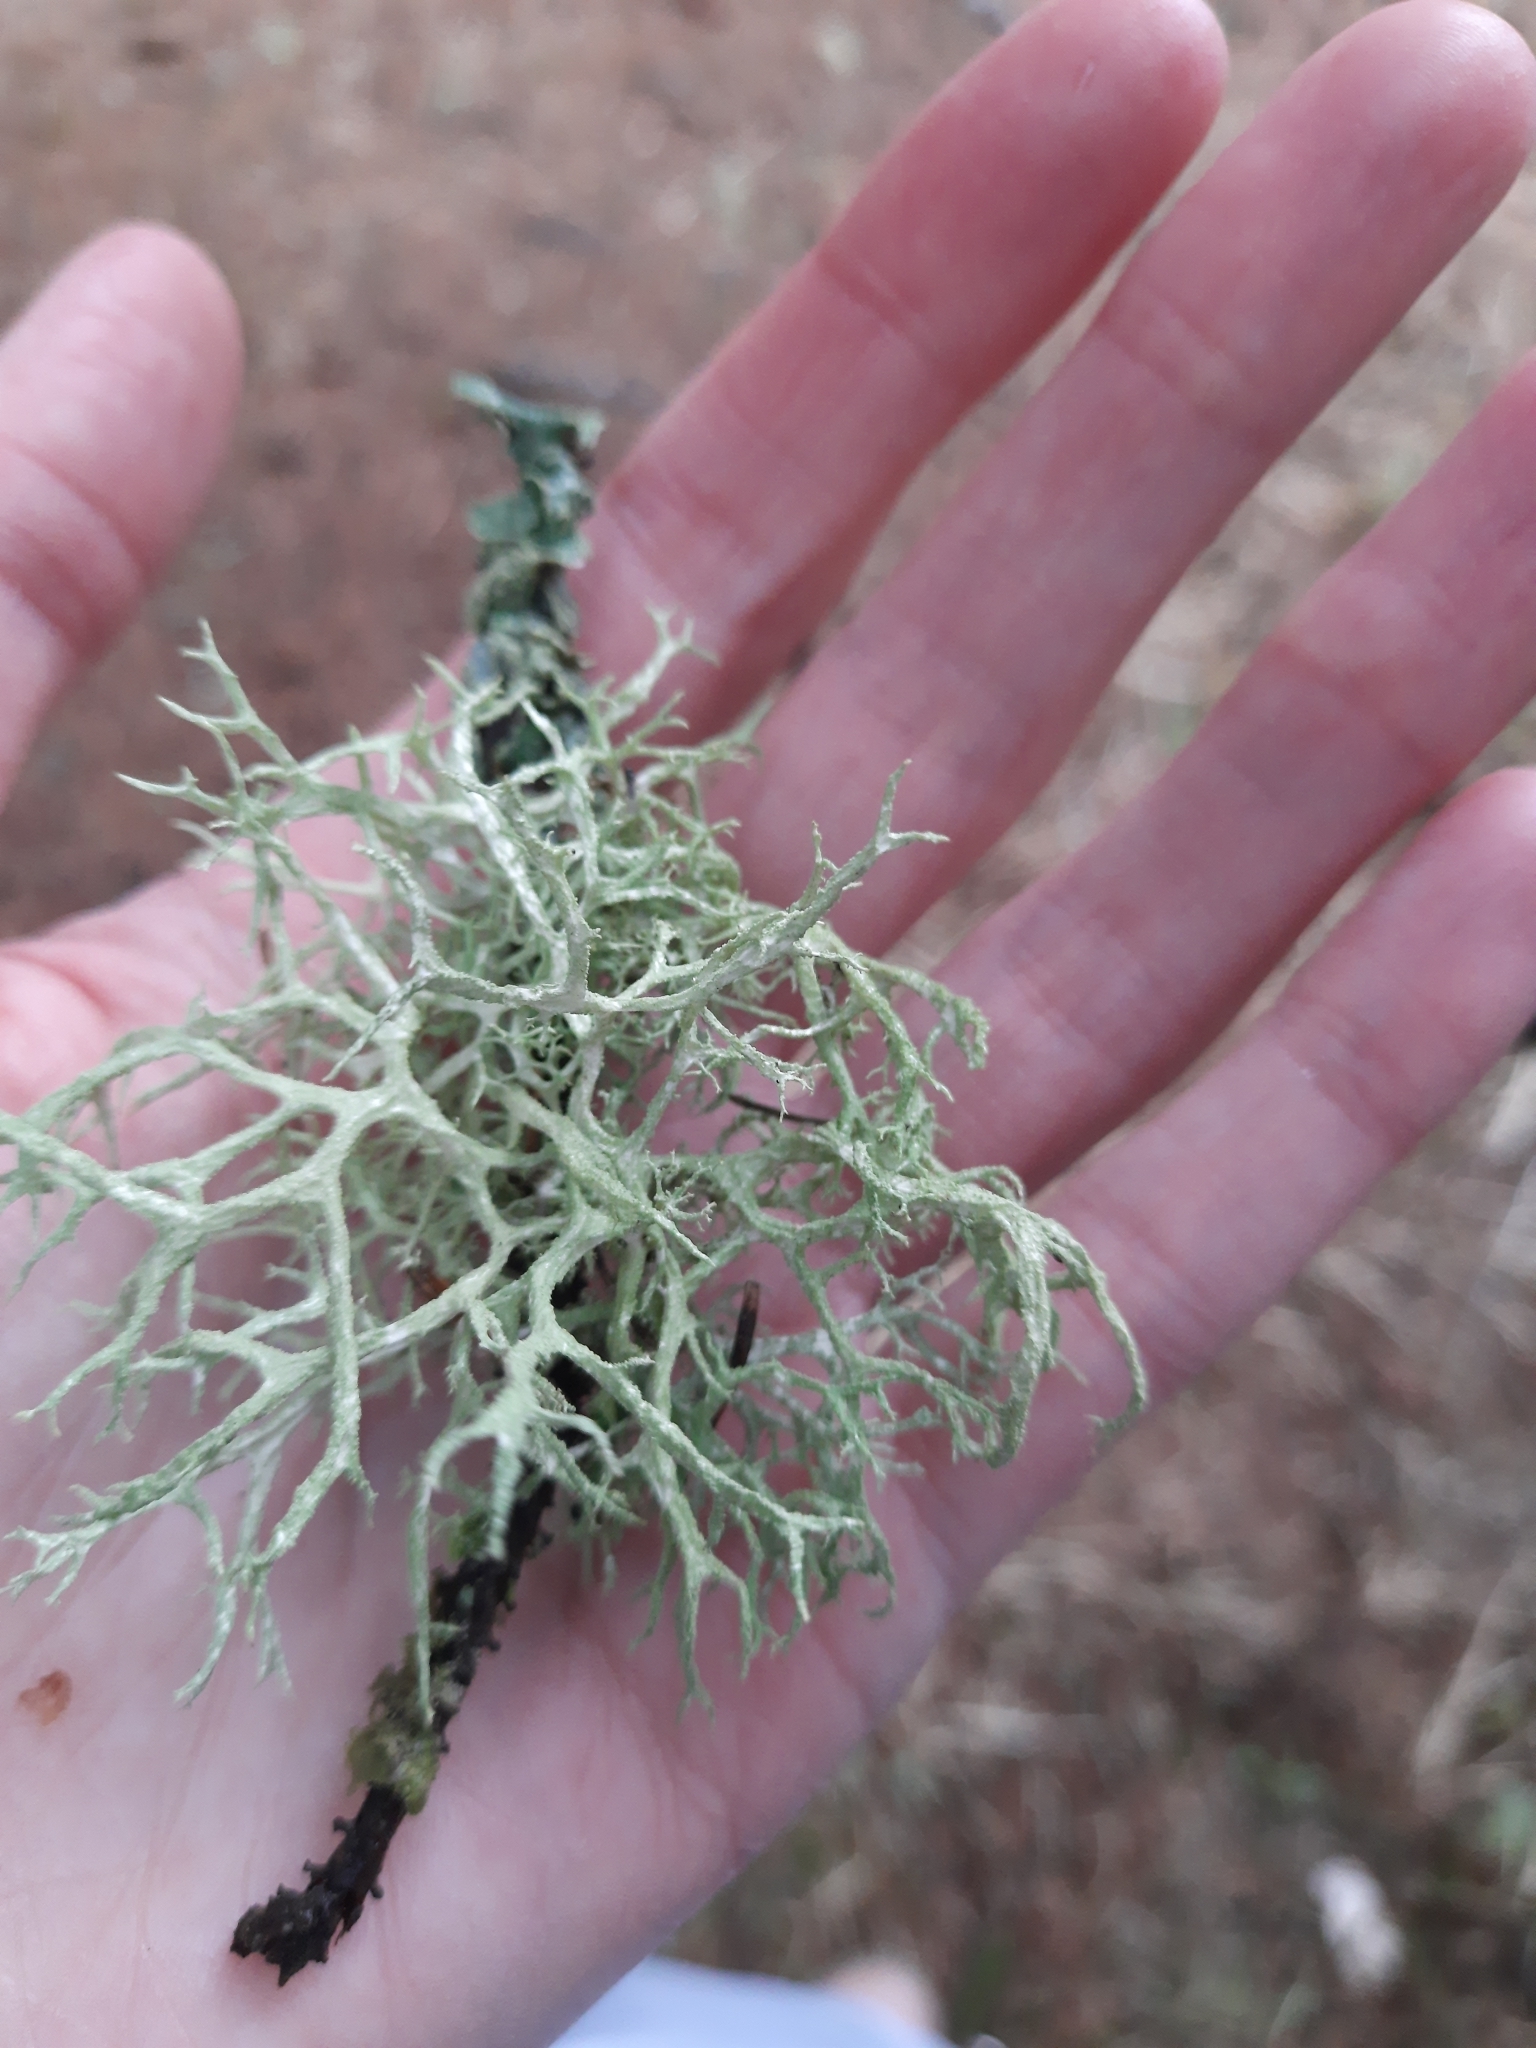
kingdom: Fungi
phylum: Ascomycota
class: Lecanoromycetes
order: Lecanorales
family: Parmeliaceae
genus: Evernia
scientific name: Evernia mesomorpha
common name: Boreal oak moss lichen
